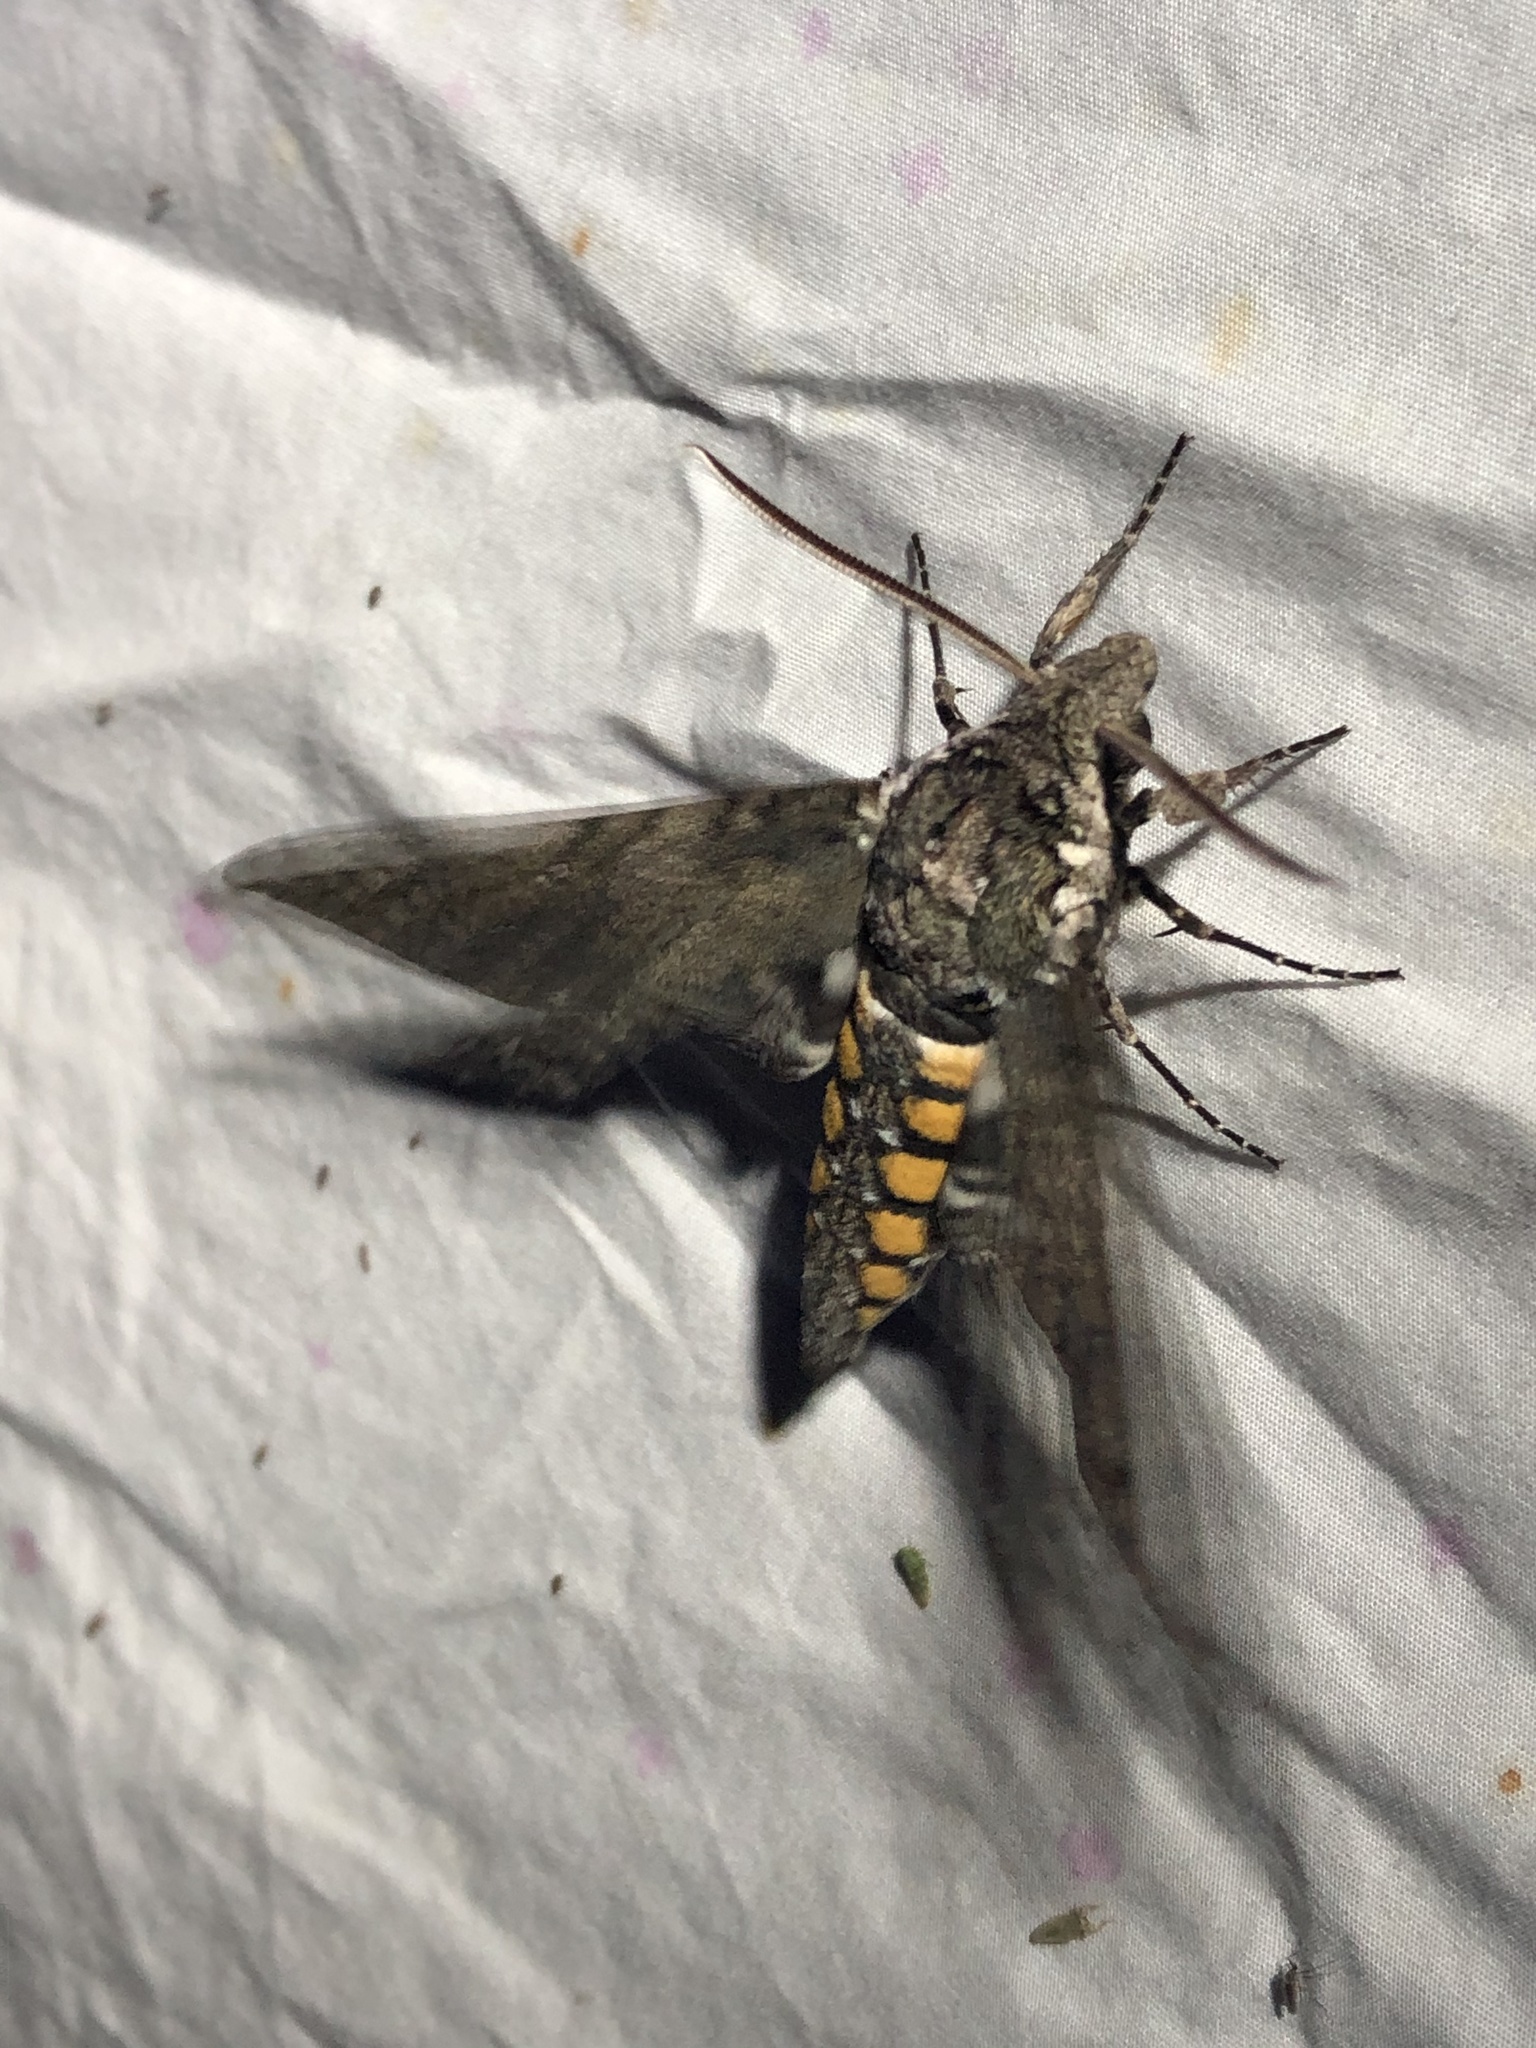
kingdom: Animalia
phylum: Arthropoda
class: Insecta
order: Lepidoptera
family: Sphingidae
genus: Manduca
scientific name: Manduca sexta
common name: Carolina sphinx
